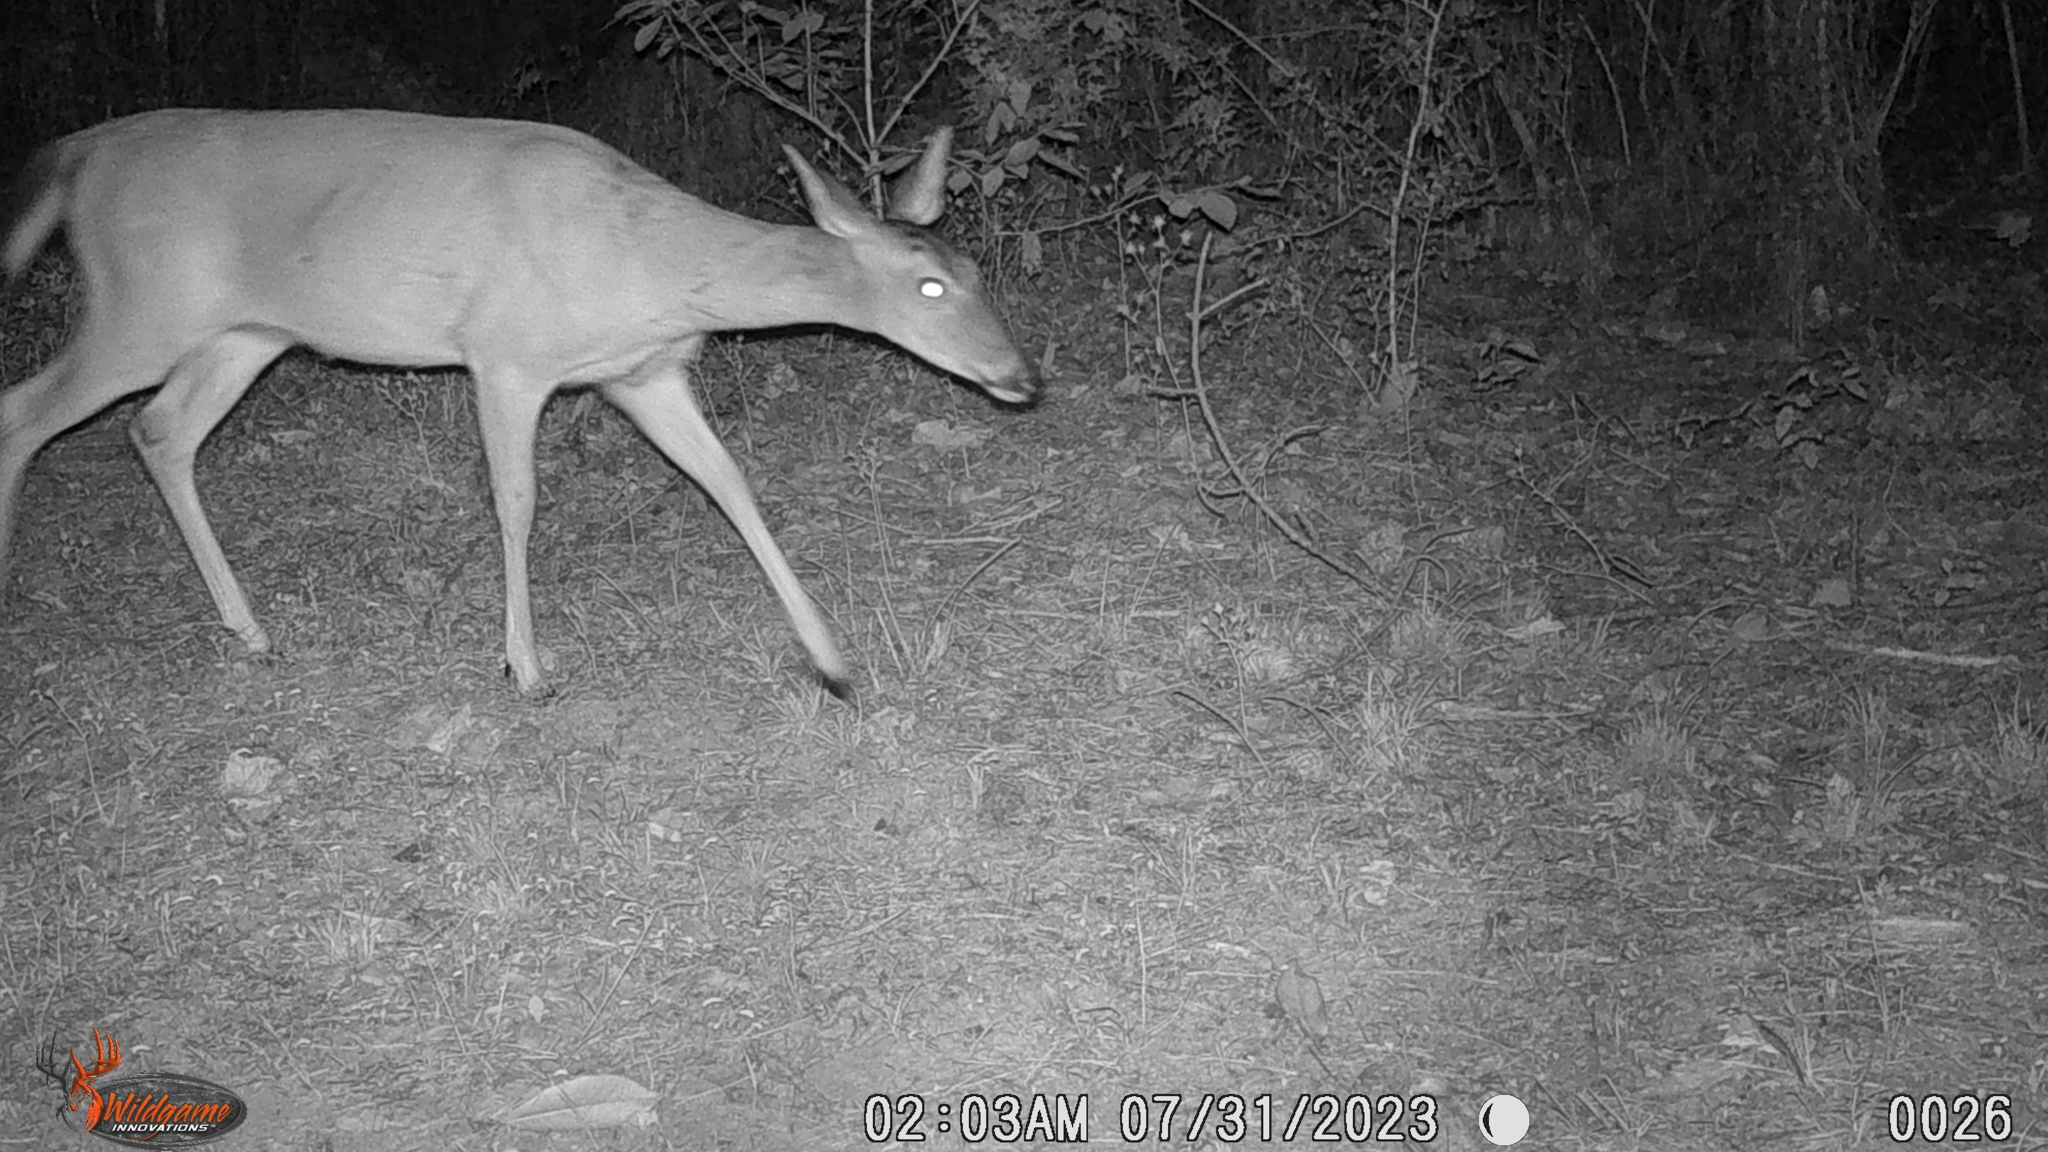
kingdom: Animalia
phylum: Chordata
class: Mammalia
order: Artiodactyla
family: Cervidae
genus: Odocoileus
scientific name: Odocoileus virginianus
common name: White-tailed deer
